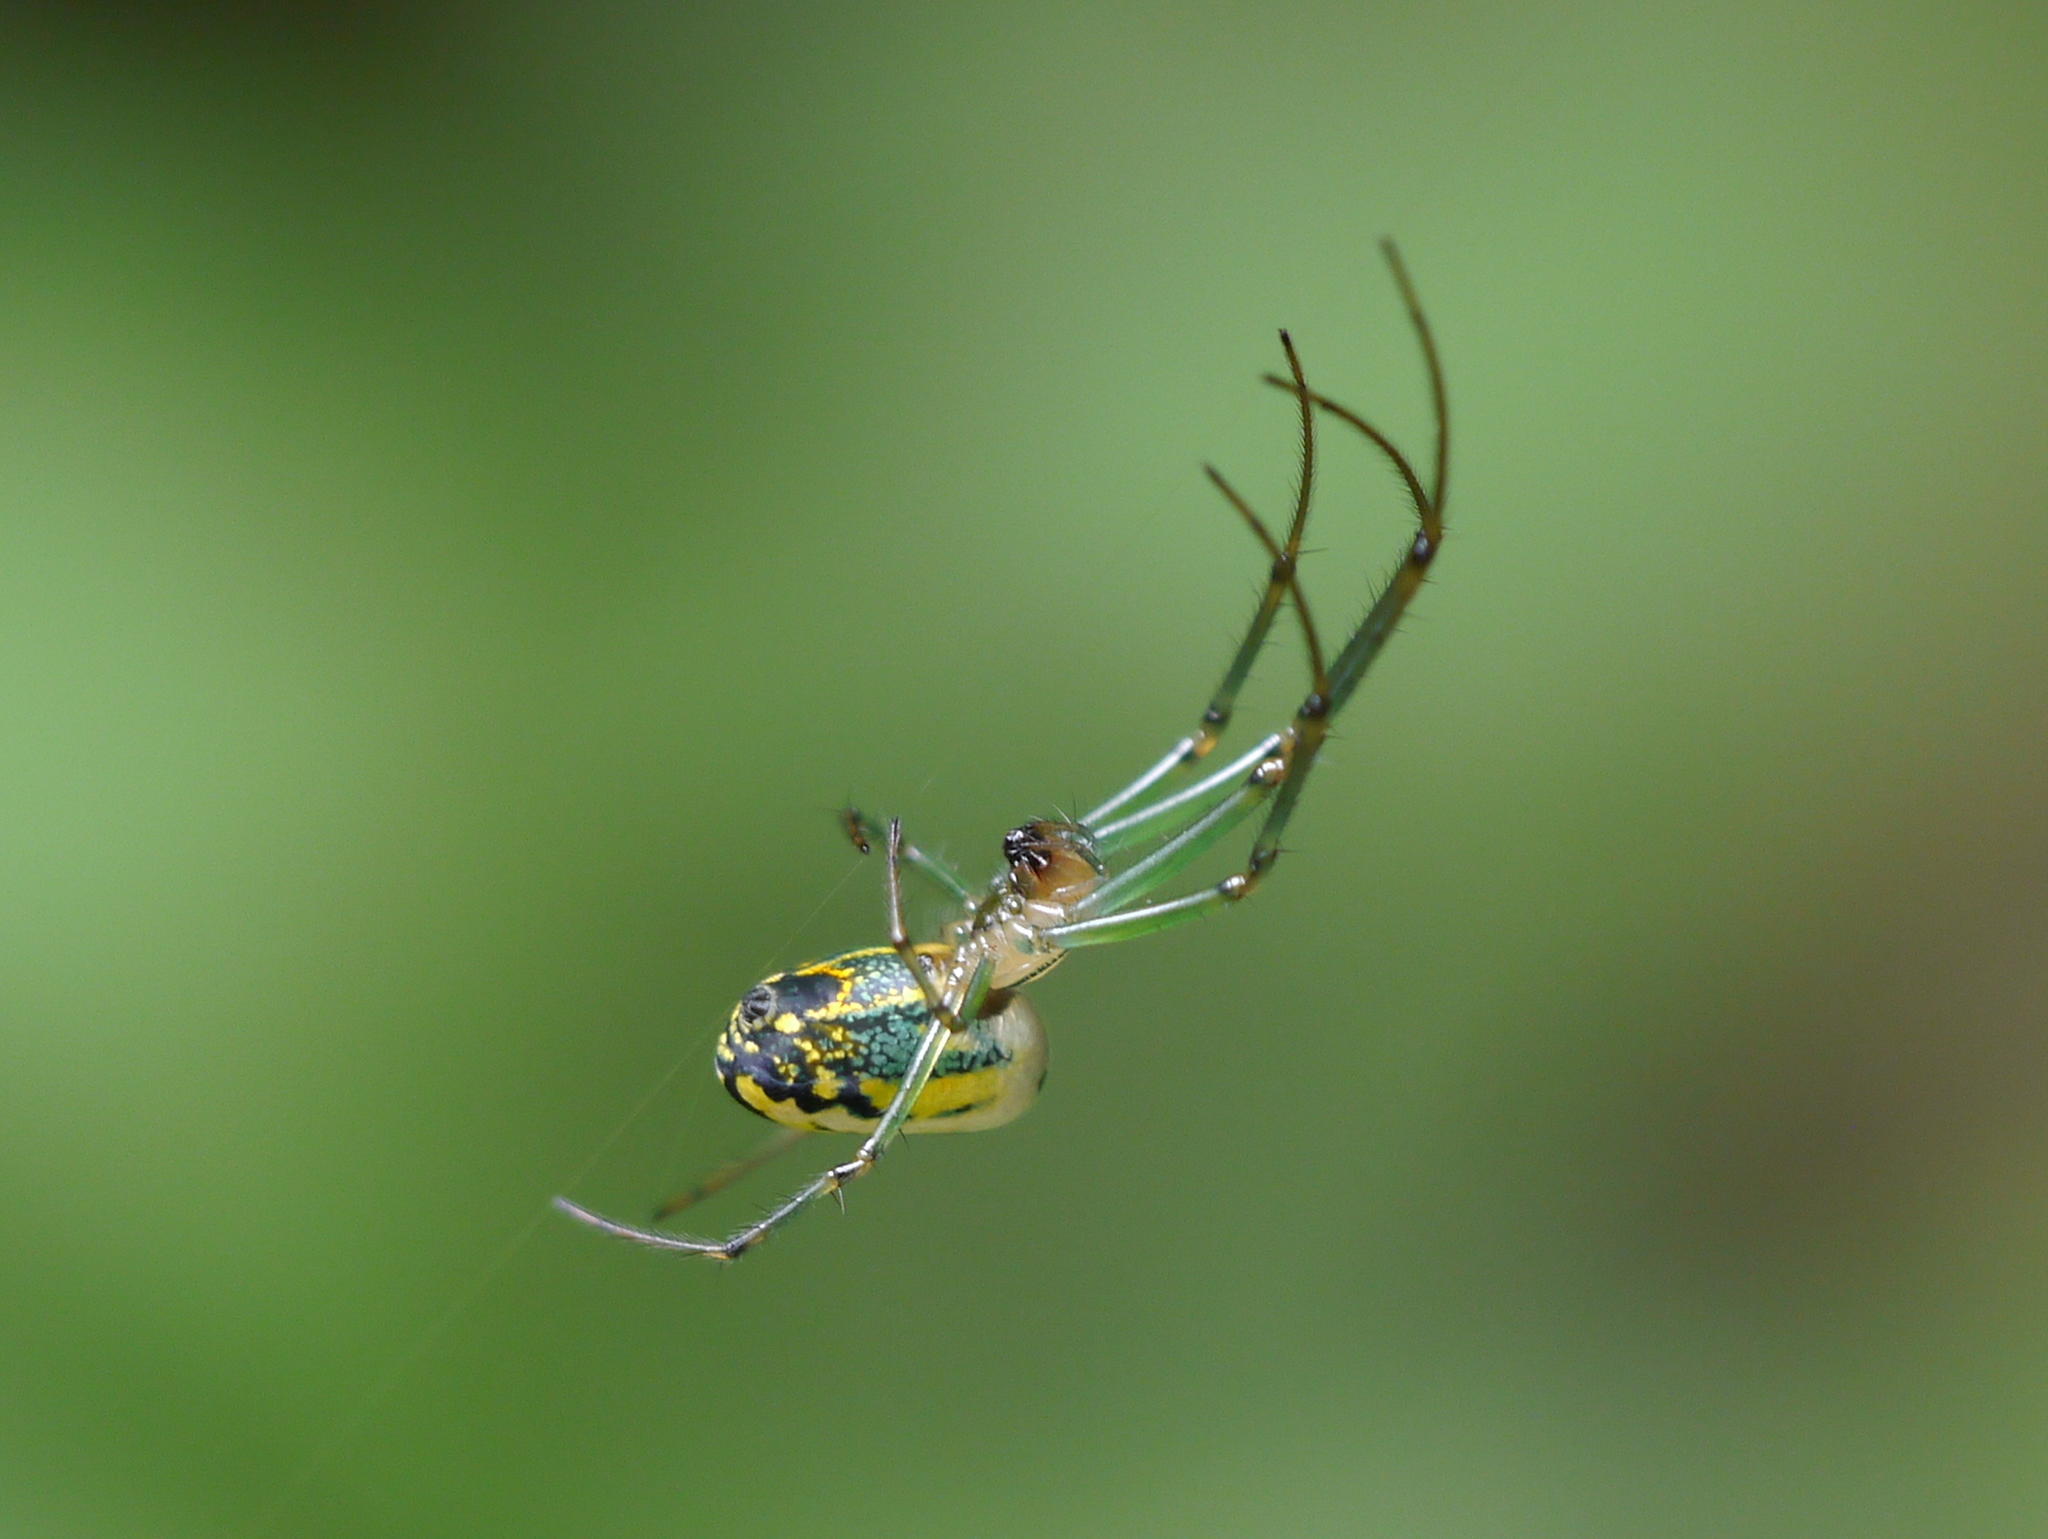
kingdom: Animalia
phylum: Arthropoda
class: Arachnida
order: Araneae
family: Tetragnathidae
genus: Leucauge
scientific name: Leucauge venusta
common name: Longjawed orb weavers
